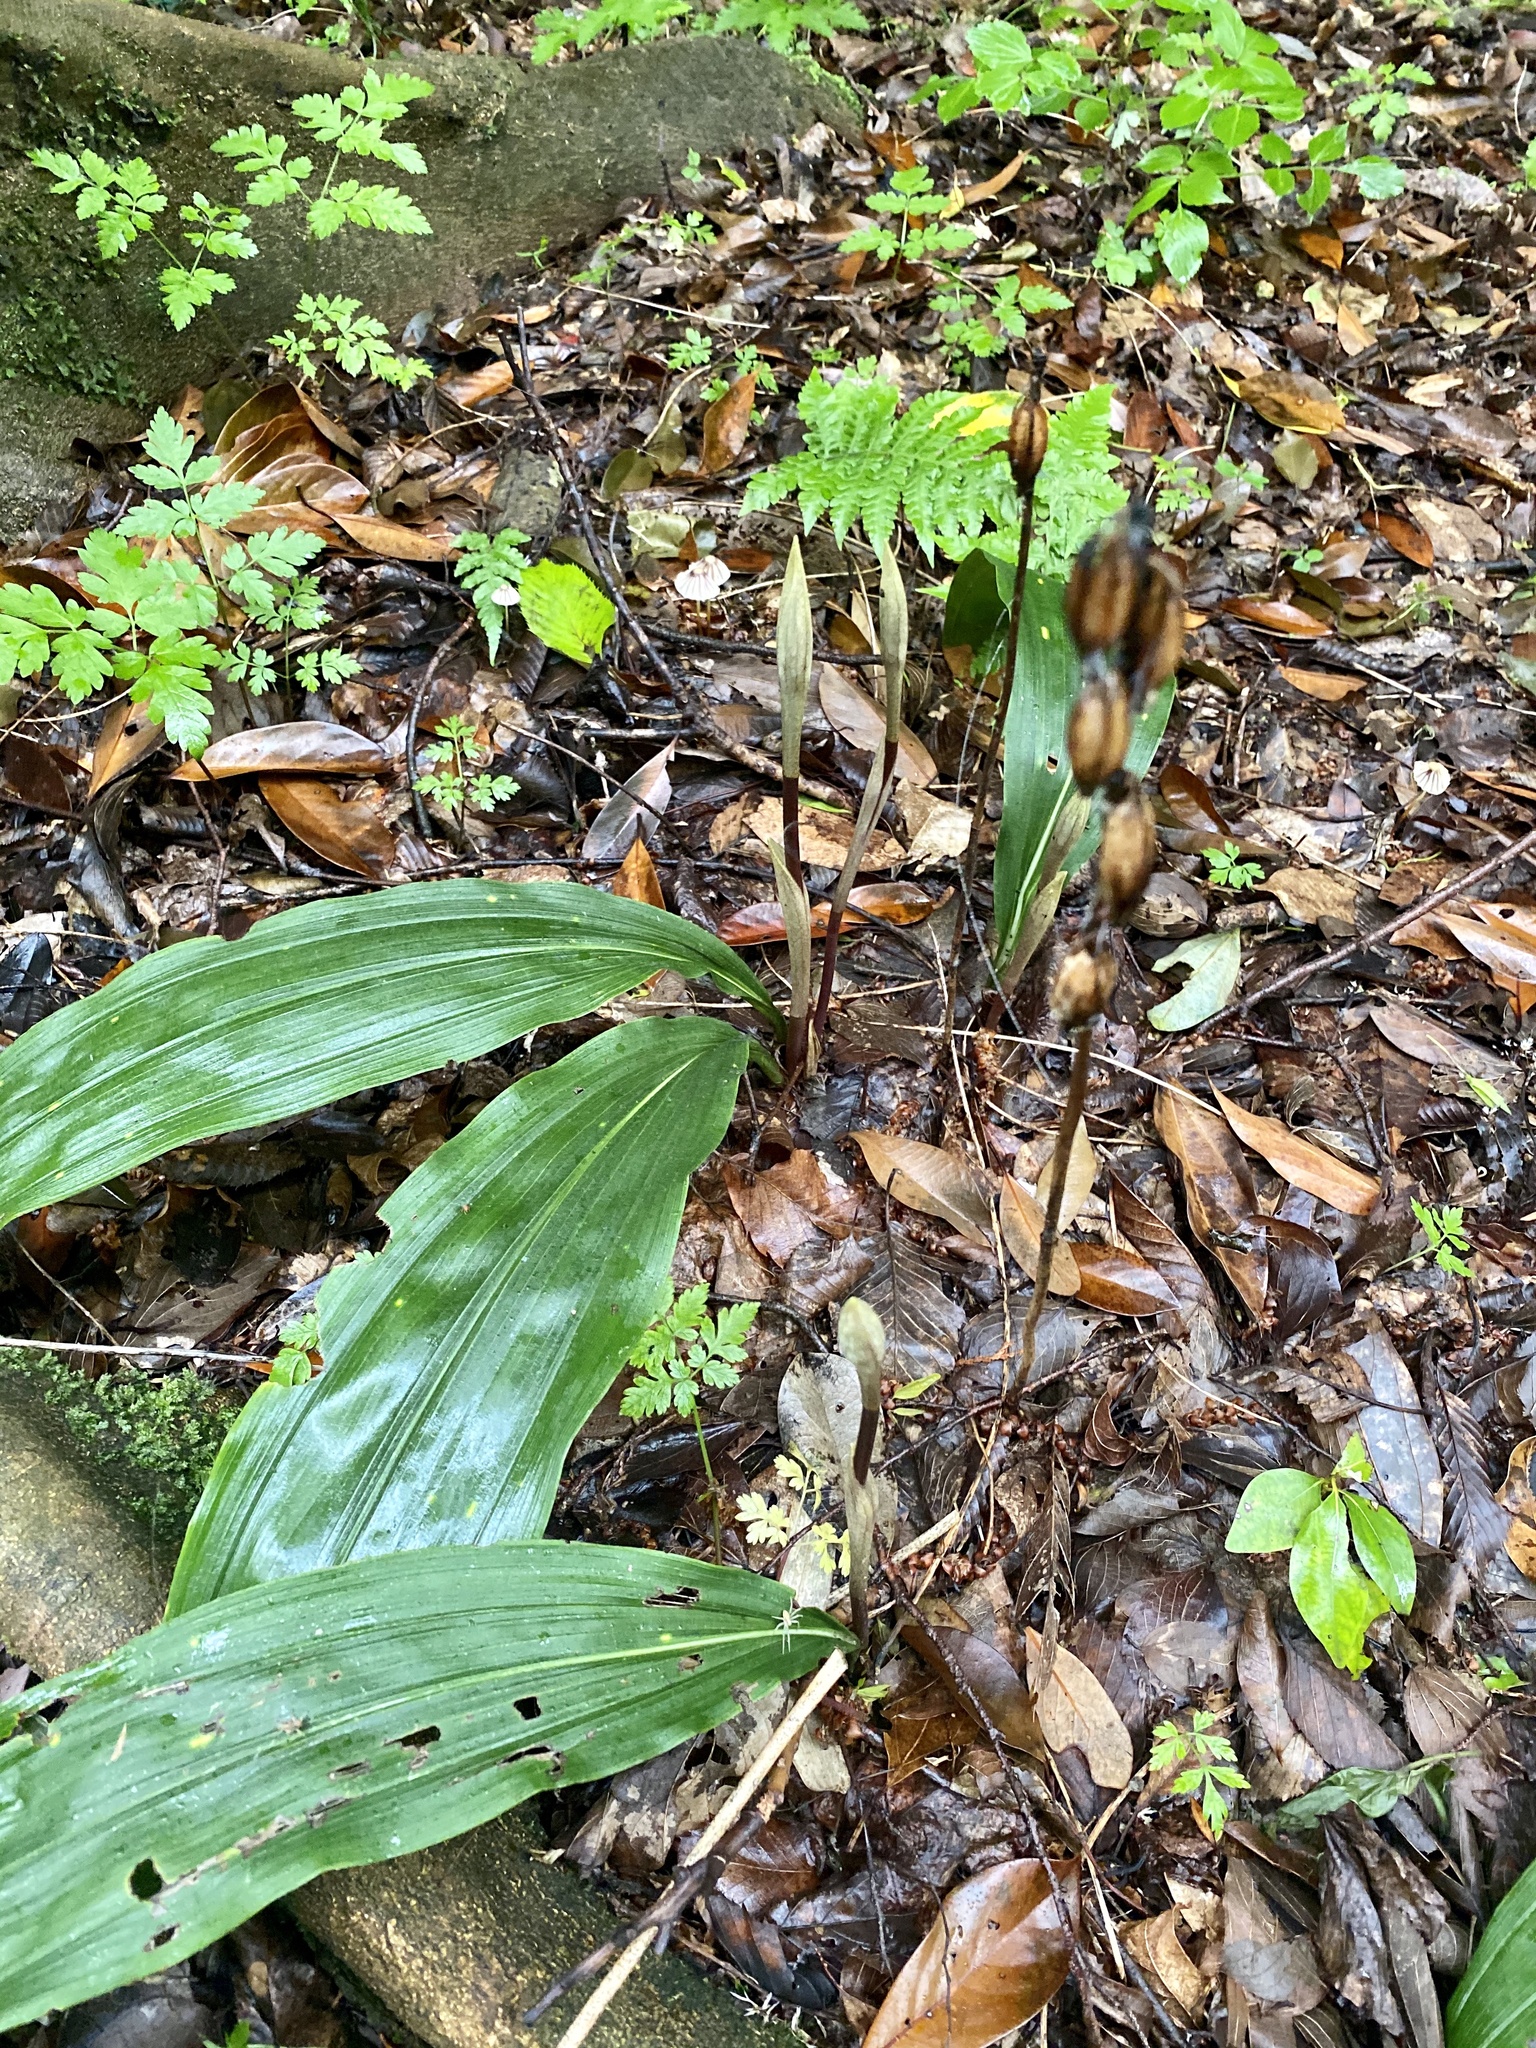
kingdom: Plantae
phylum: Tracheophyta
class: Liliopsida
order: Asparagales
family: Orchidaceae
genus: Cremastra
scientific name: Cremastra appendiculata
